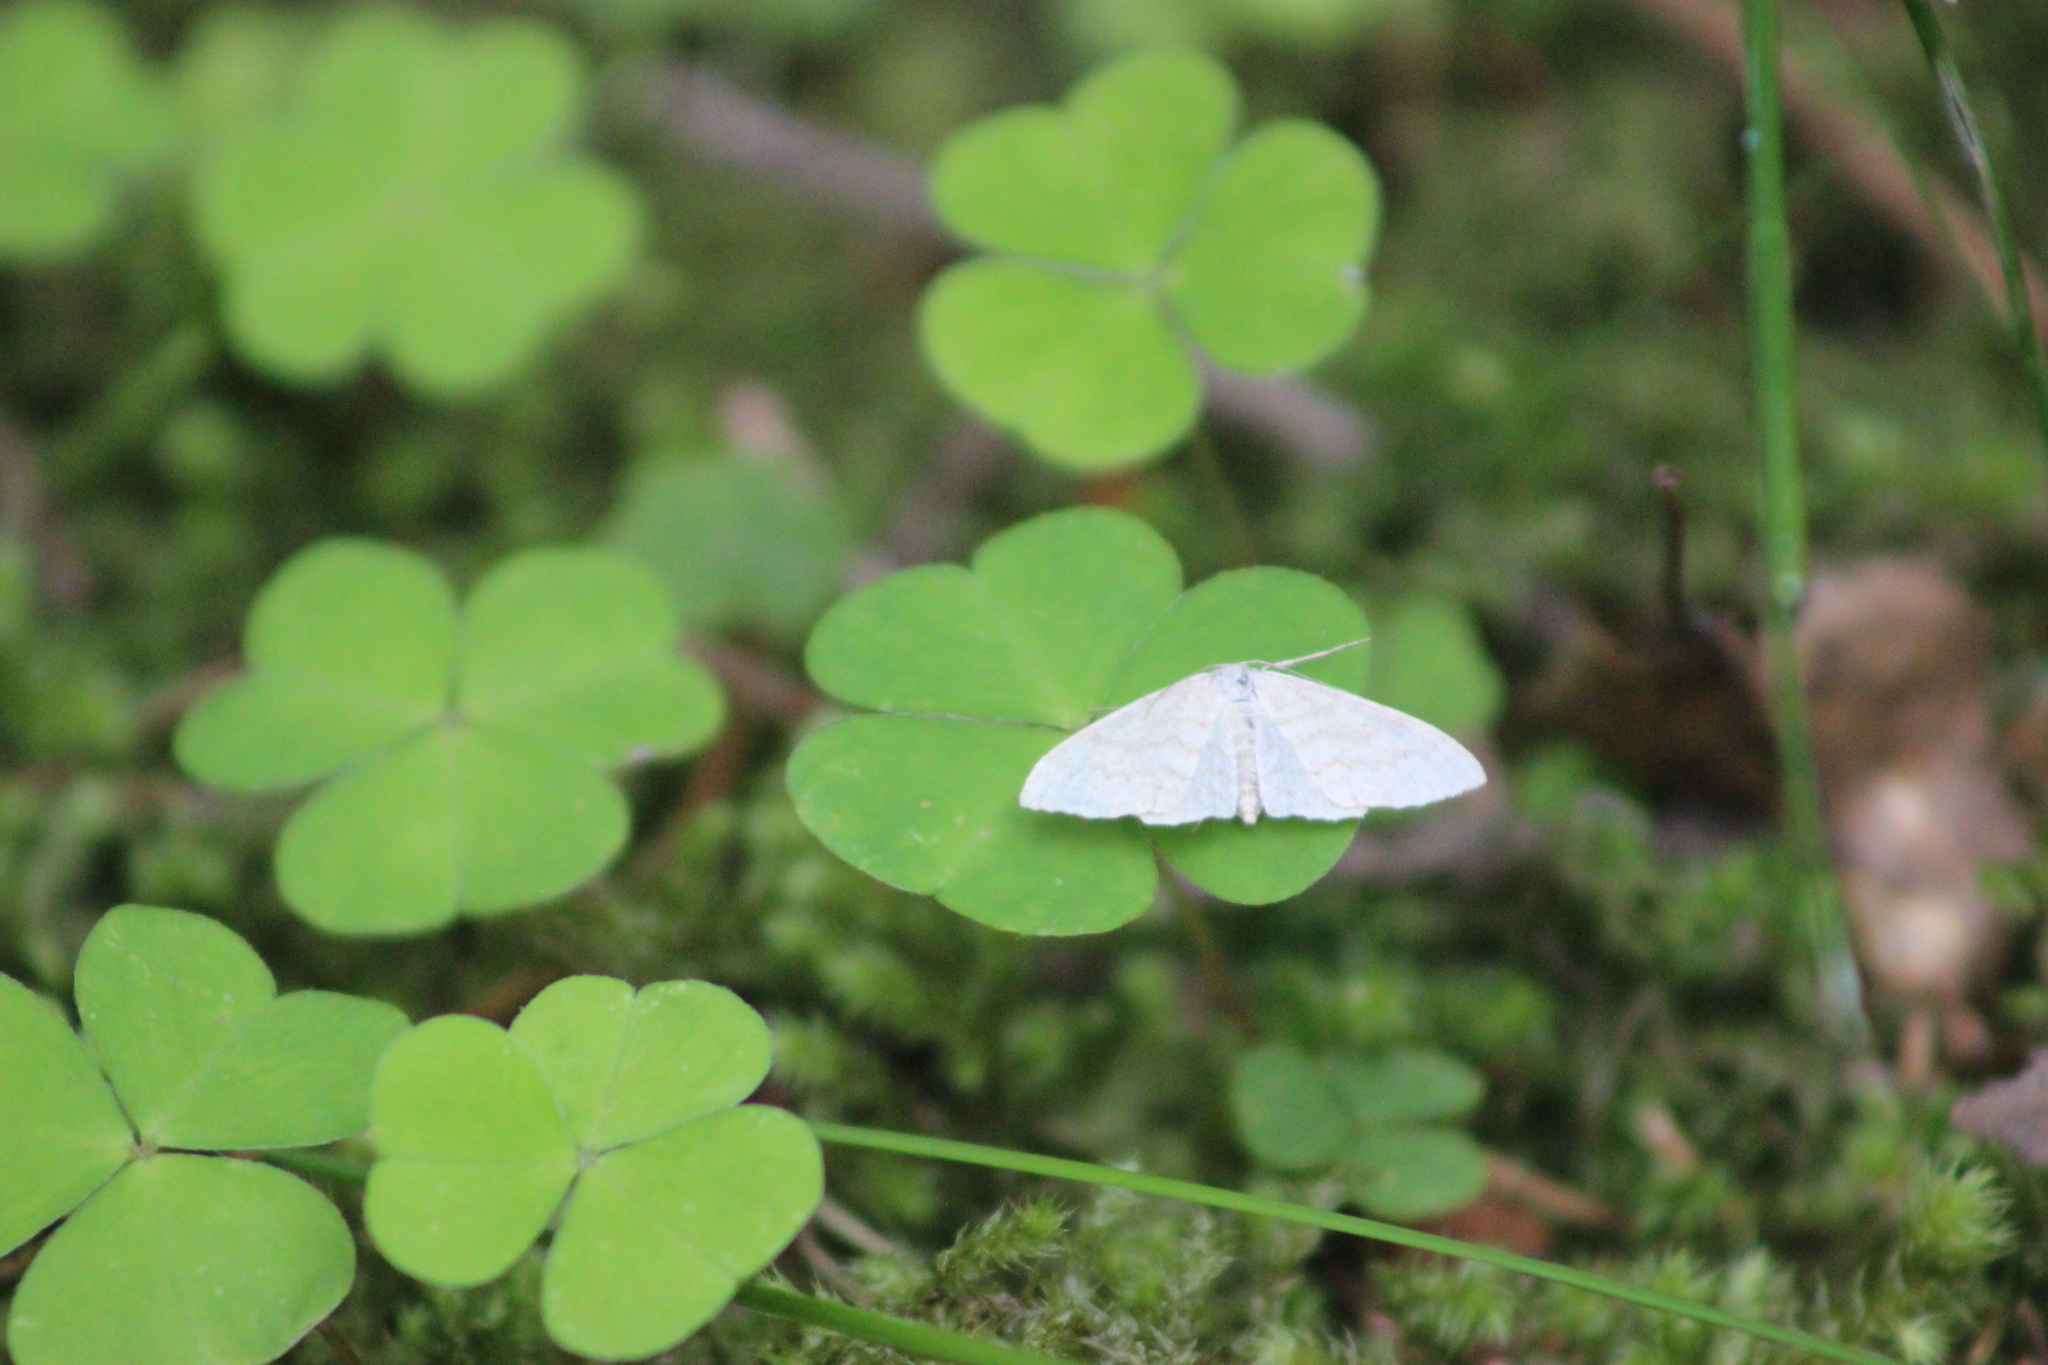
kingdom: Animalia
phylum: Arthropoda
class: Insecta
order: Lepidoptera
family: Geometridae
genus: Scopula
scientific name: Scopula floslactata
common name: Cream wave
